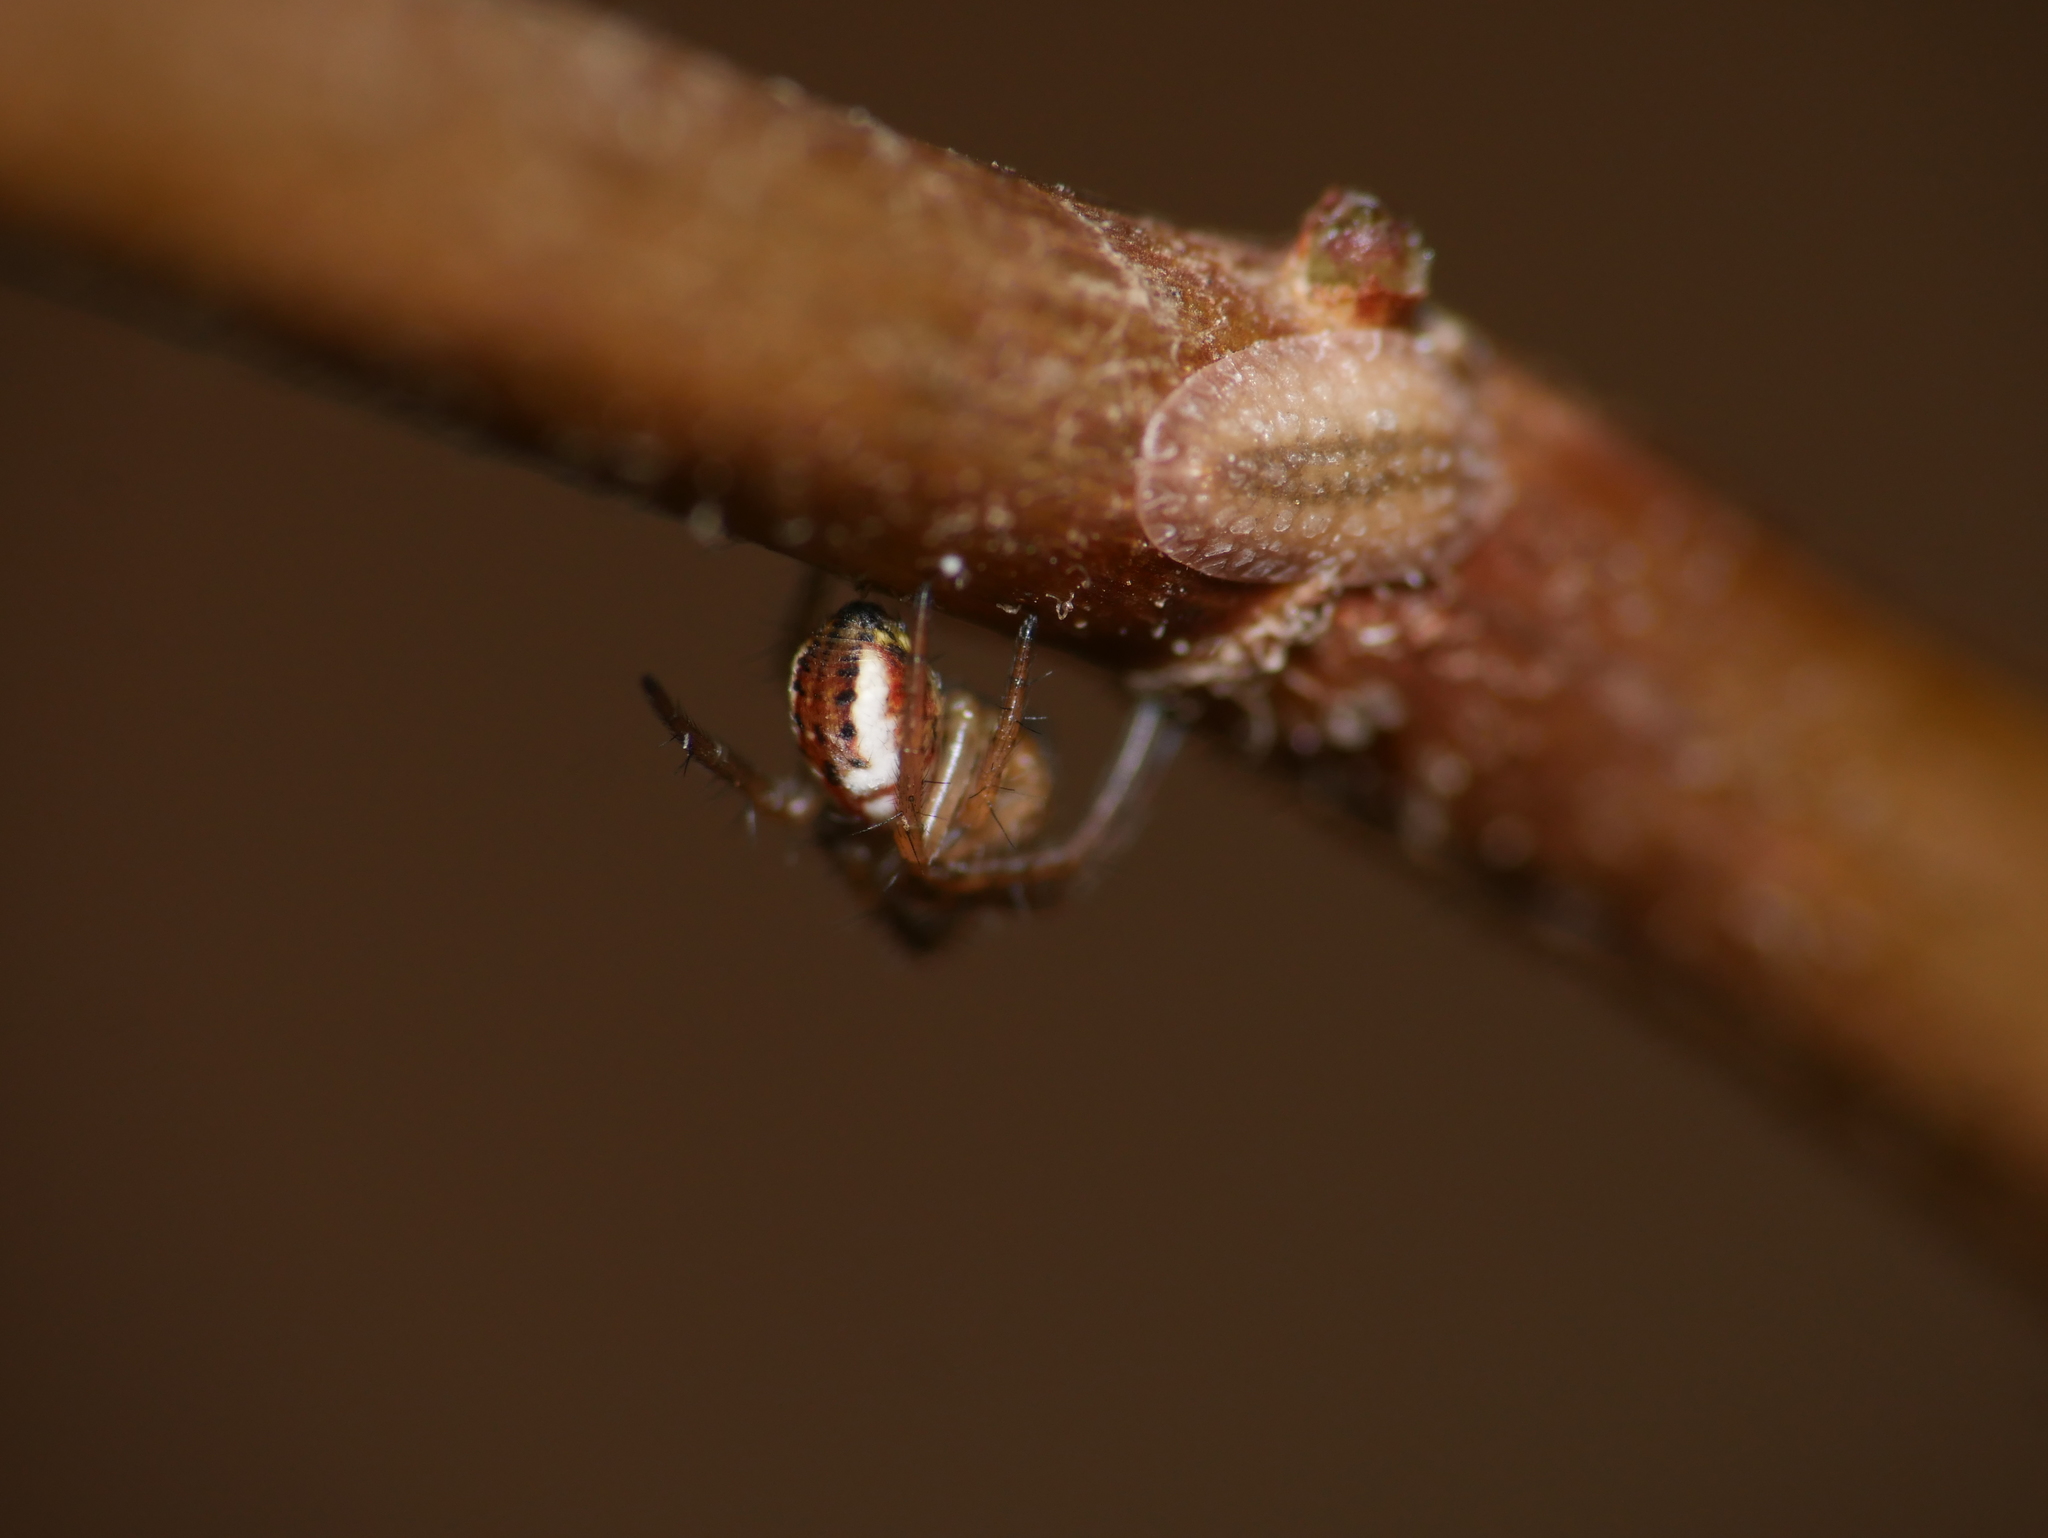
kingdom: Animalia
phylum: Arthropoda
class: Arachnida
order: Araneae
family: Araneidae
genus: Mangora
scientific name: Mangora acalypha
